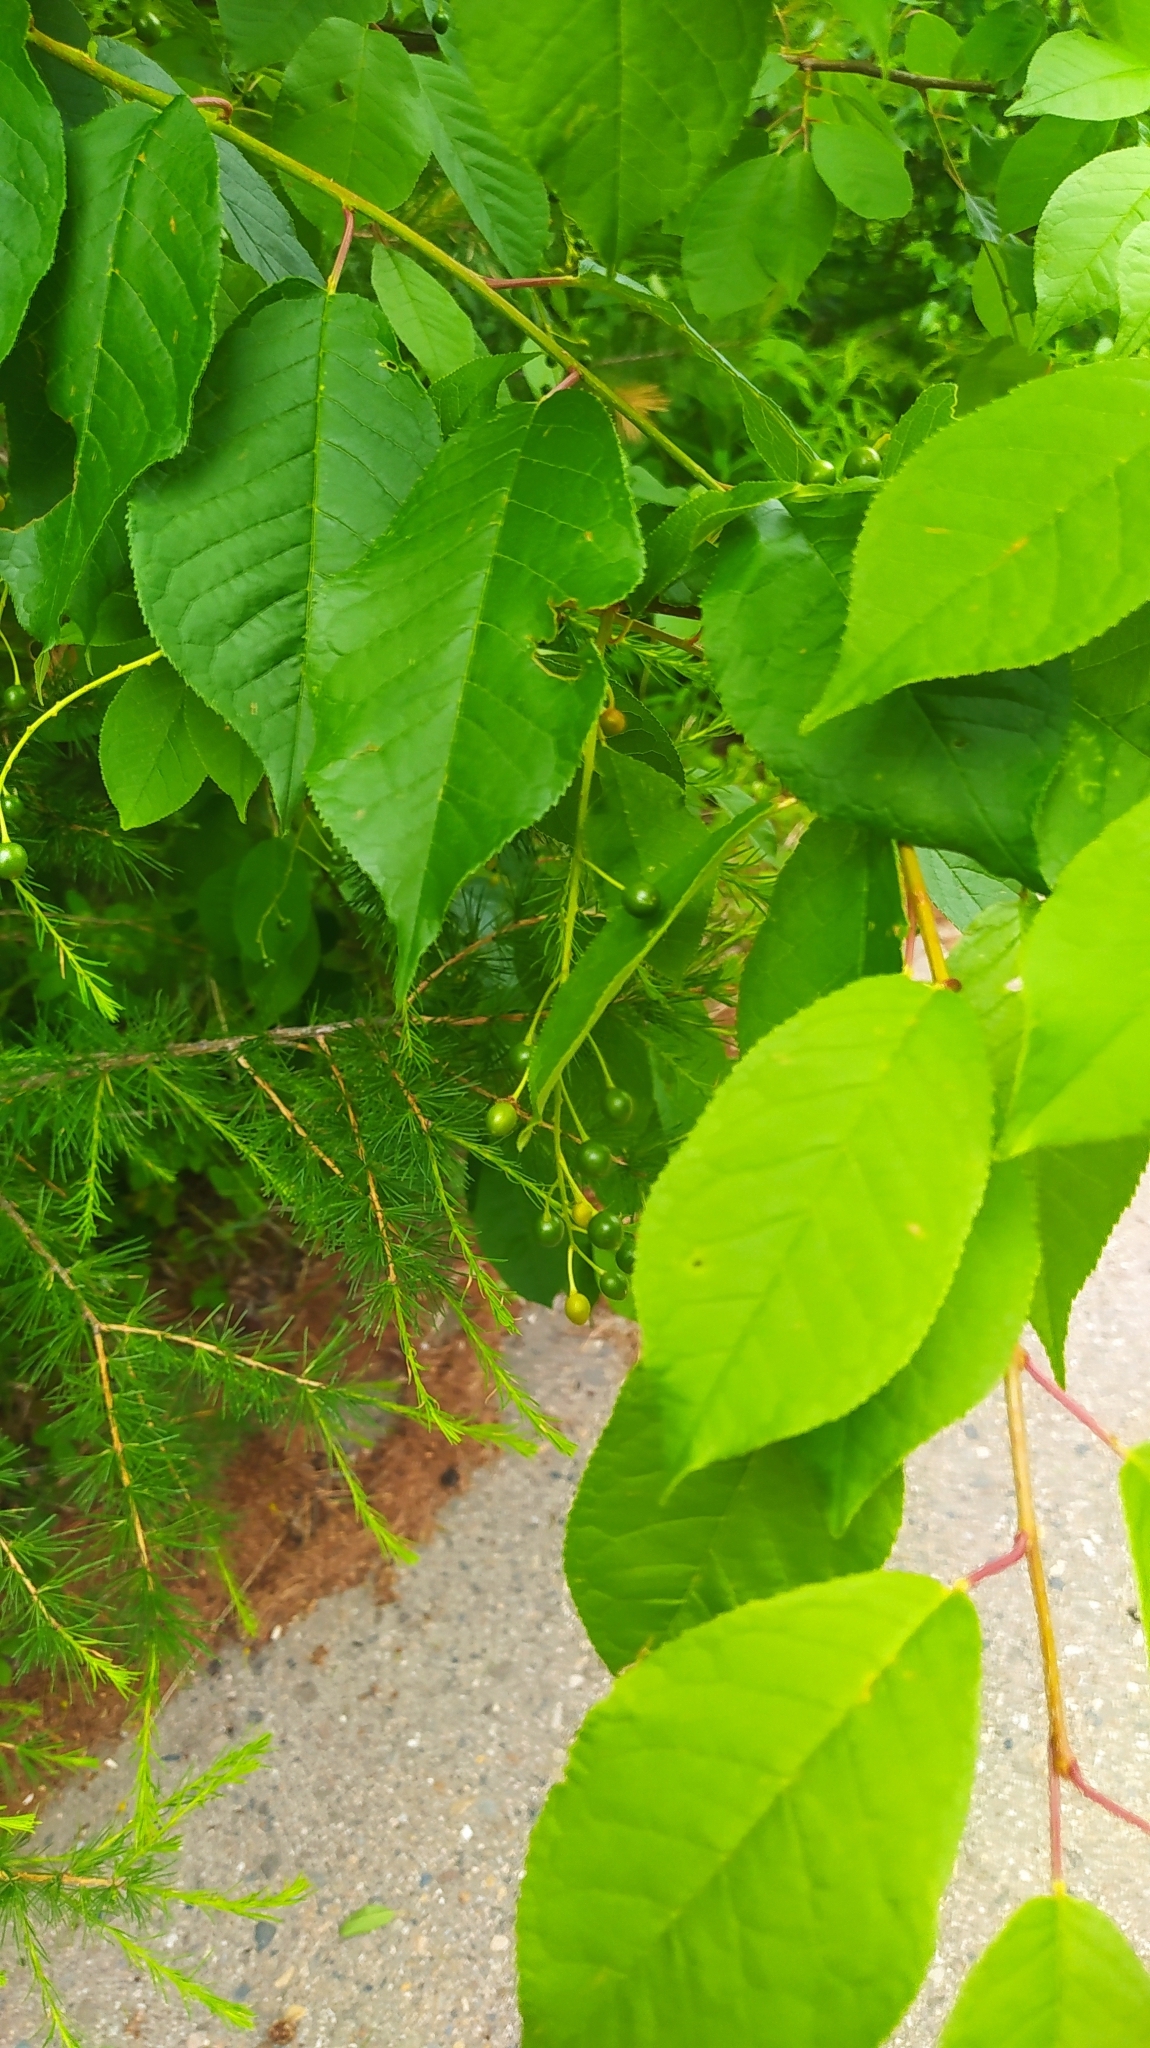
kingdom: Plantae
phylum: Tracheophyta
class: Magnoliopsida
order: Rosales
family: Rosaceae
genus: Prunus
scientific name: Prunus padus
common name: Bird cherry
